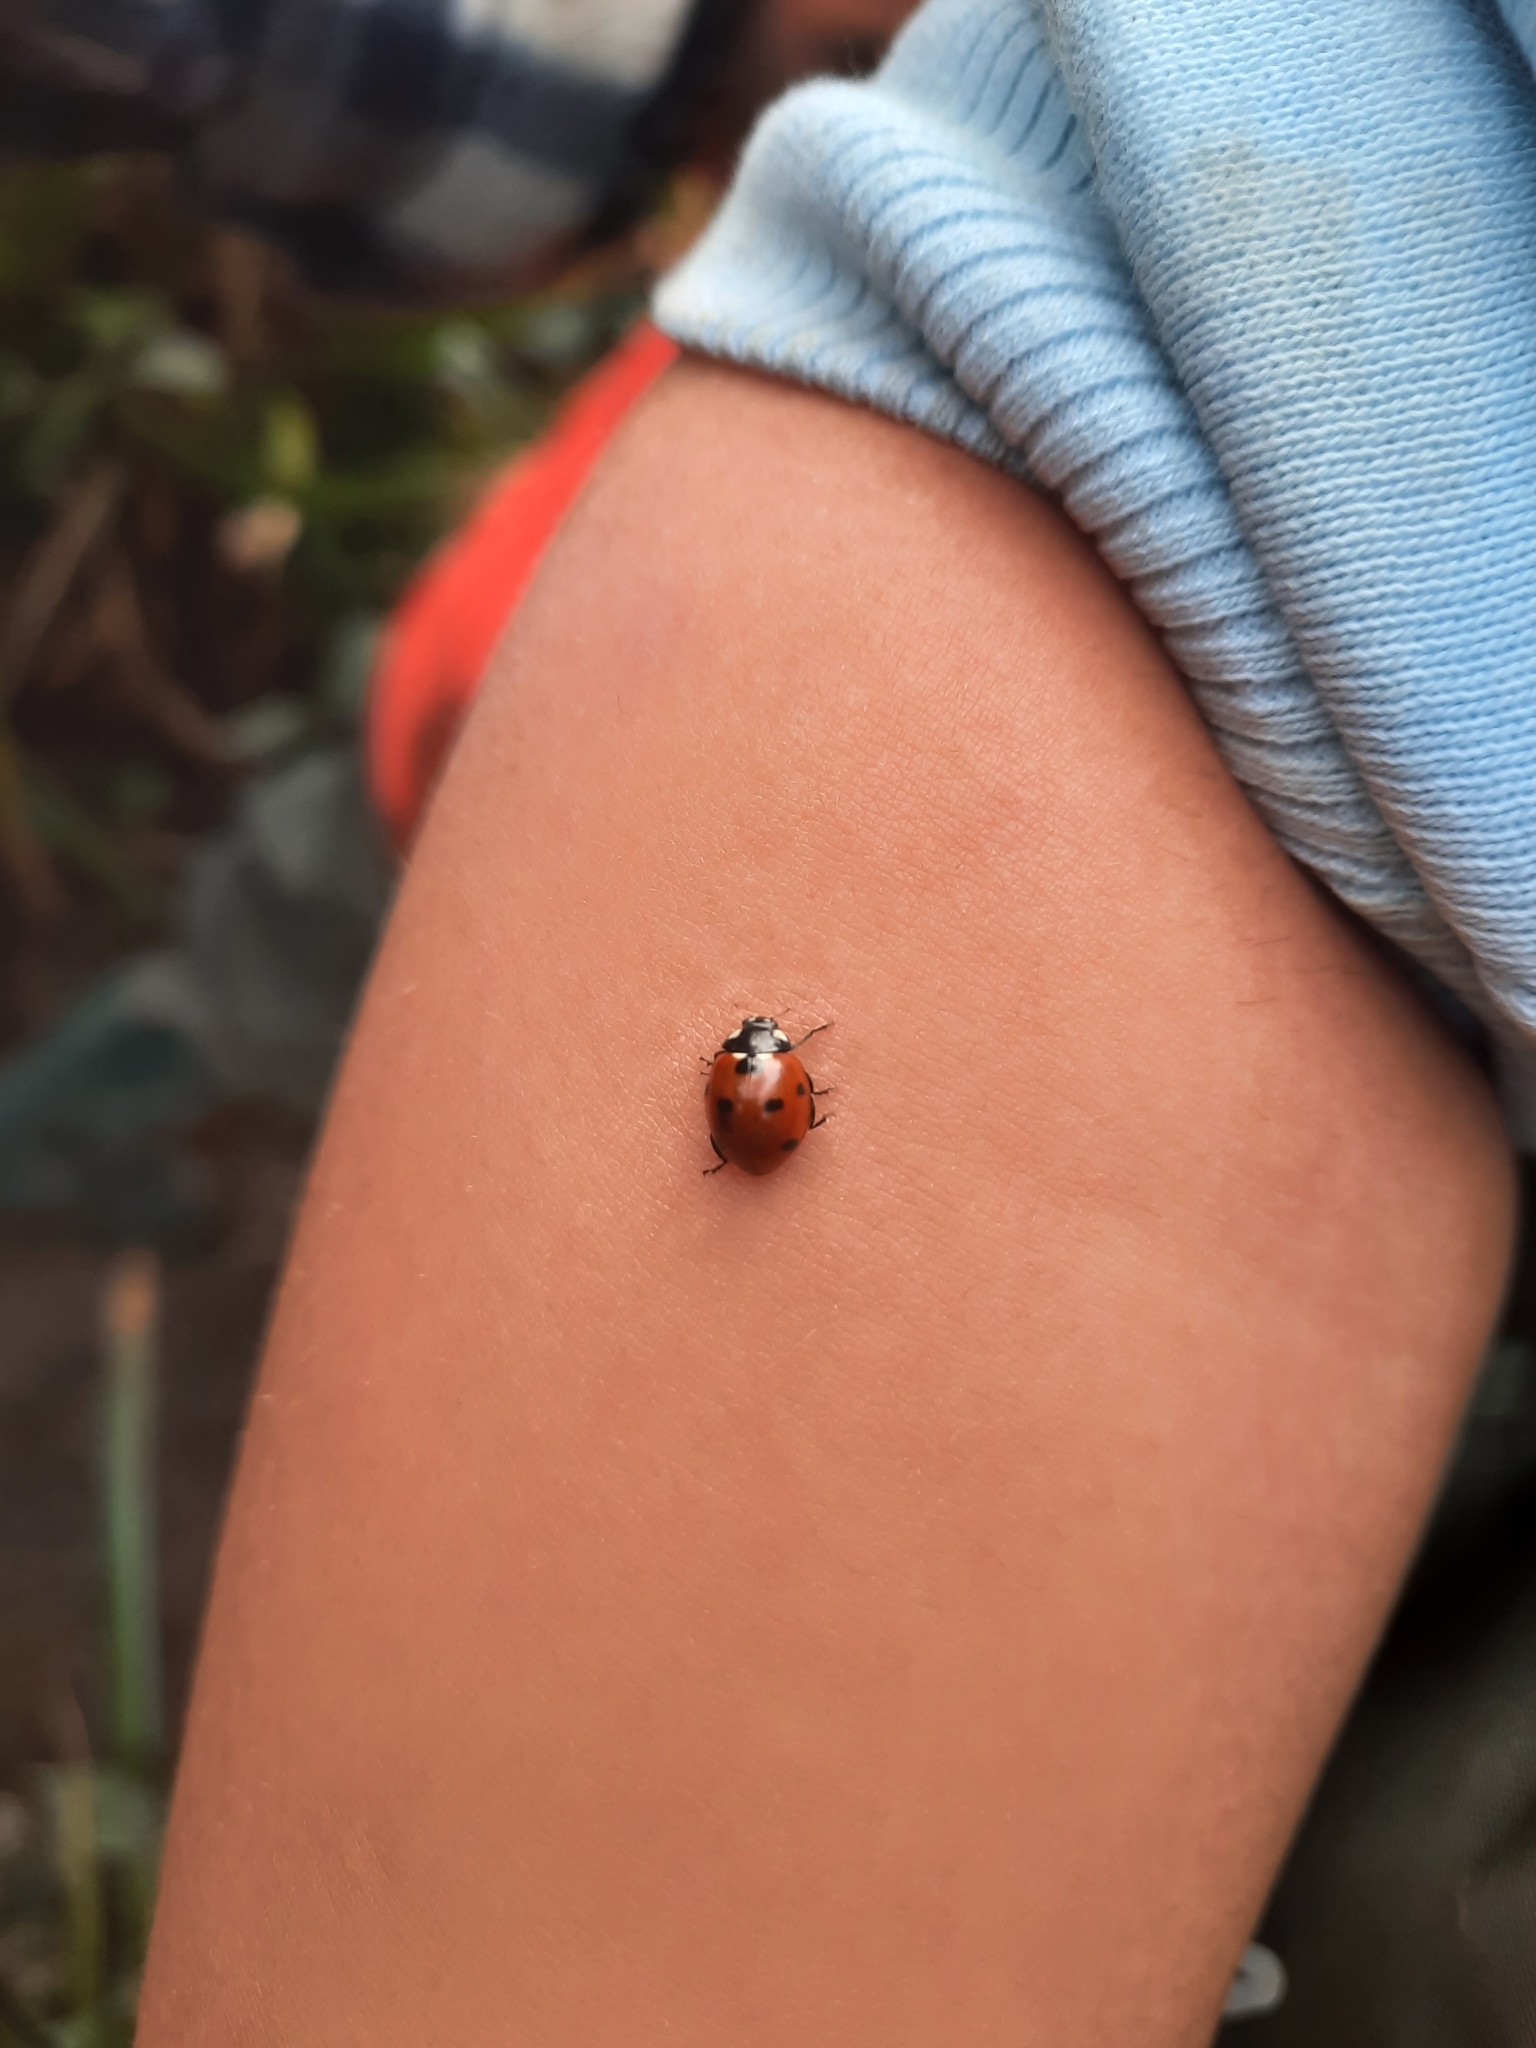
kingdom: Animalia
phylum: Arthropoda
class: Insecta
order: Coleoptera
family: Coccinellidae
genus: Coccinella
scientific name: Coccinella septempunctata
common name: Sevenspotted lady beetle
